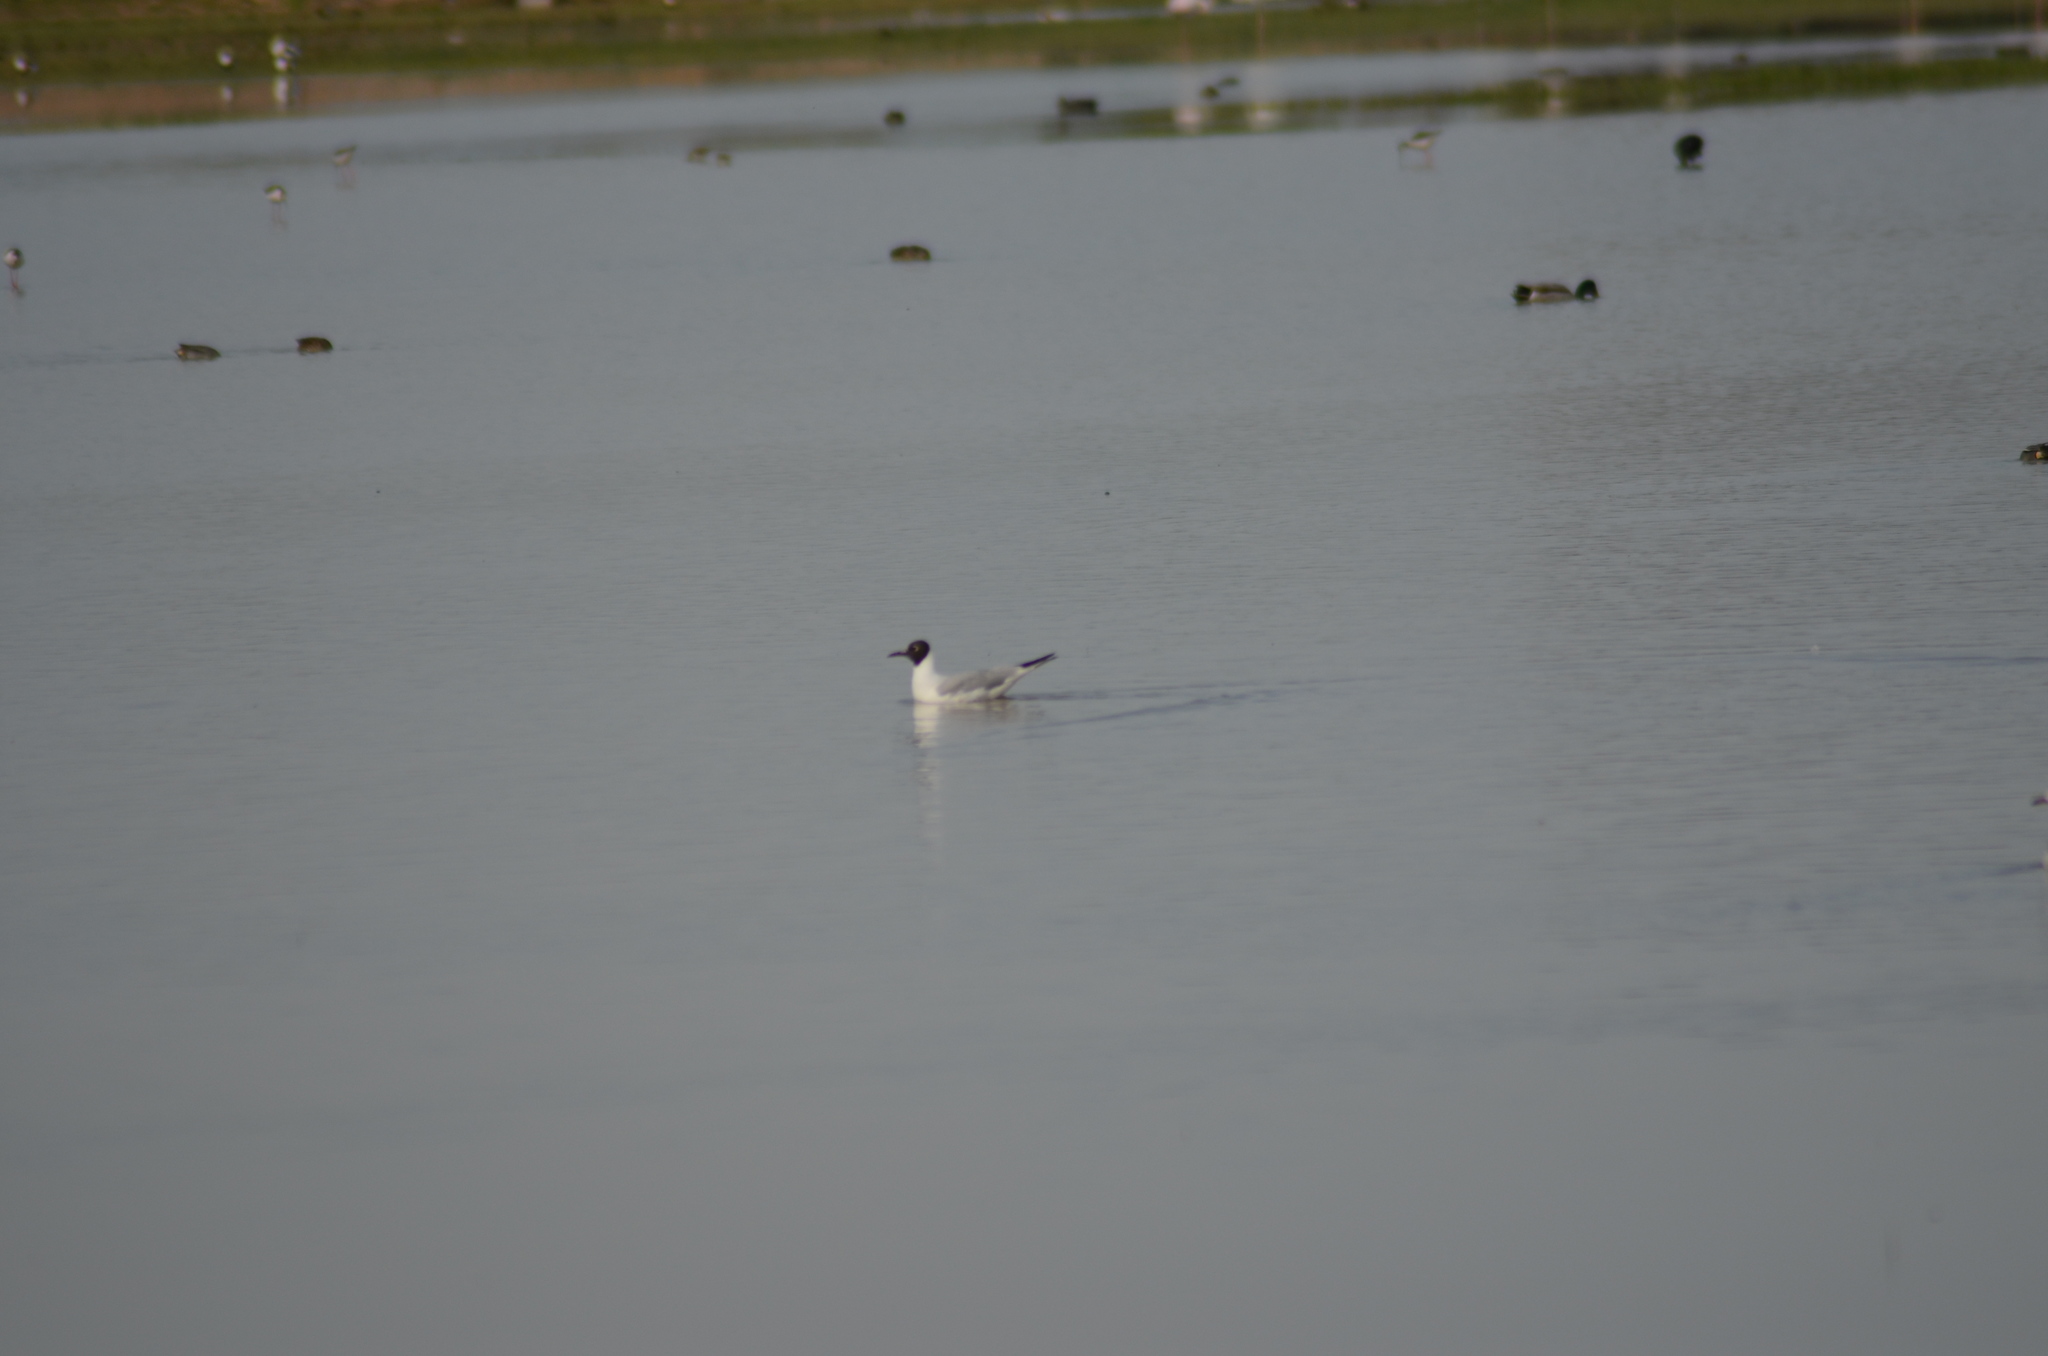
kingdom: Animalia
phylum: Chordata
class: Aves
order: Charadriiformes
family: Laridae
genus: Chroicocephalus
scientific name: Chroicocephalus ridibundus
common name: Black-headed gull
